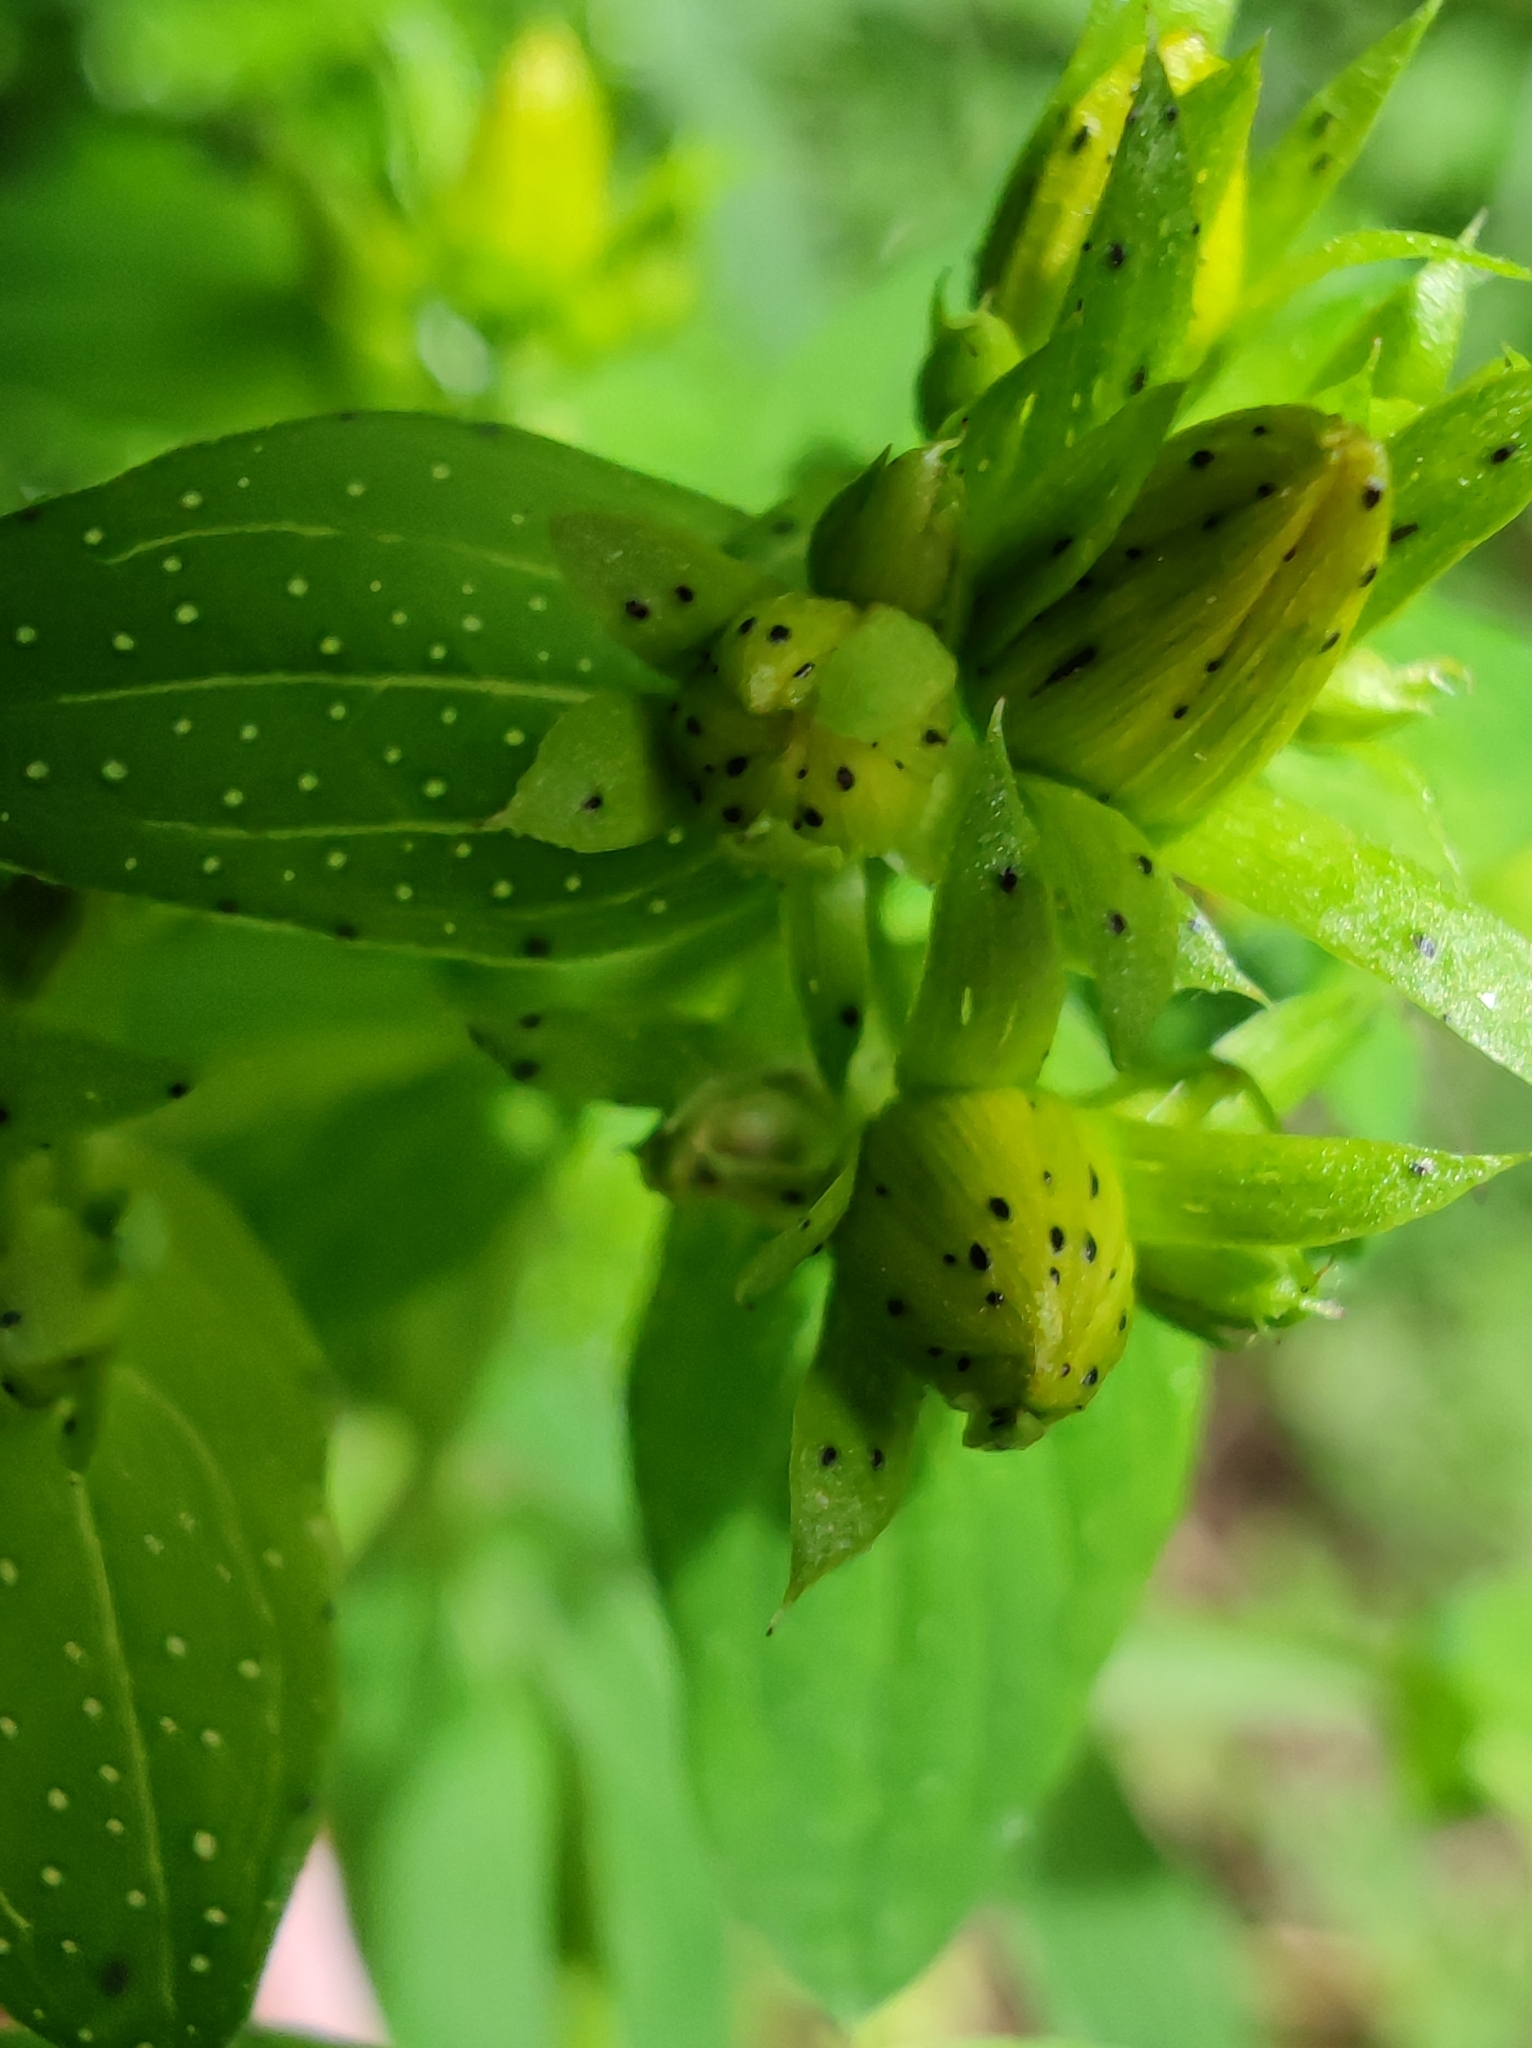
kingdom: Plantae
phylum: Tracheophyta
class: Magnoliopsida
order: Malpighiales
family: Hypericaceae
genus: Hypericum
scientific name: Hypericum perforatum
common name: Common st. johnswort
